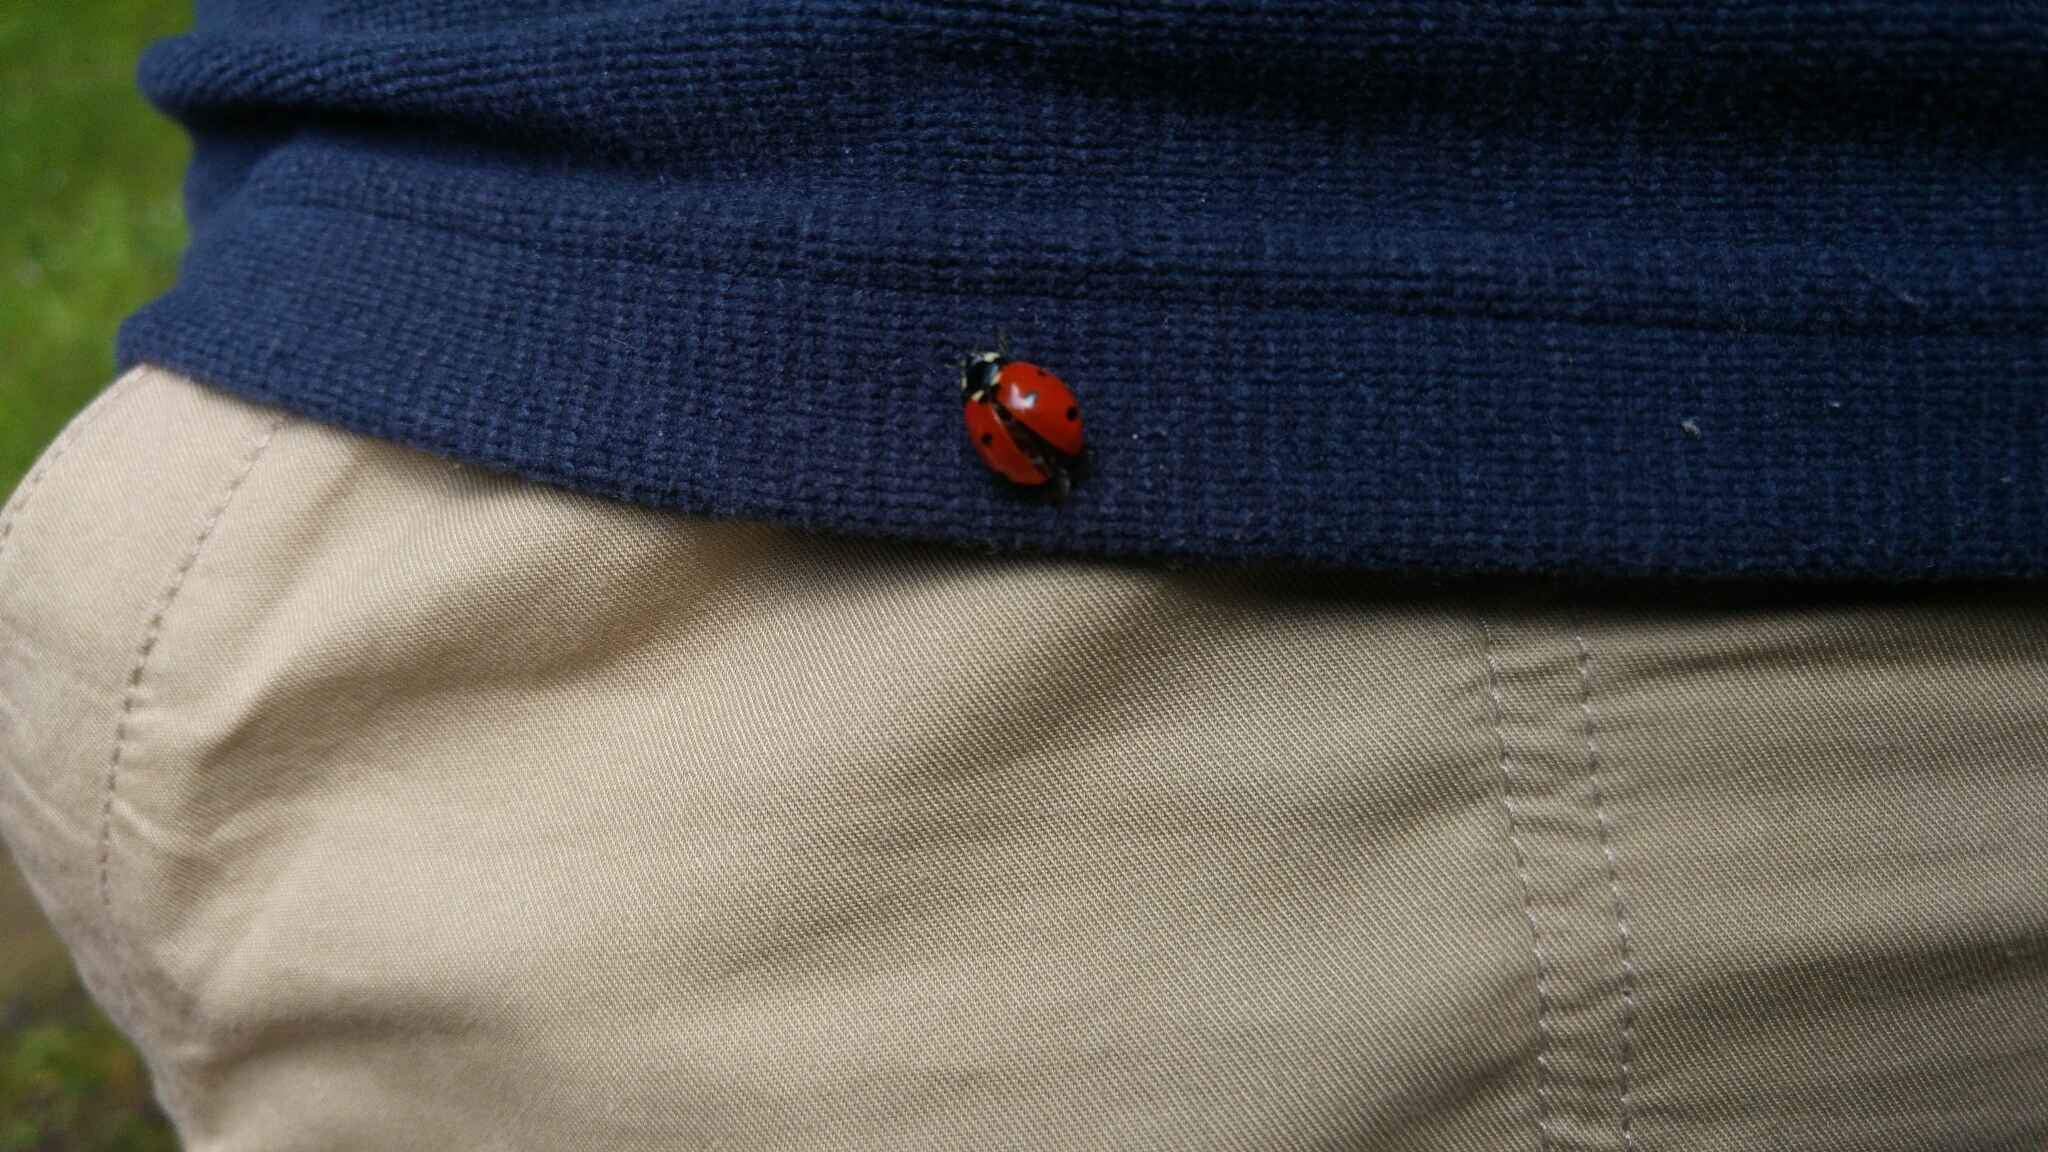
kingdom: Animalia
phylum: Arthropoda
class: Insecta
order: Coleoptera
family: Coccinellidae
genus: Coccinella
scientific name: Coccinella septempunctata
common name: Sevenspotted lady beetle
